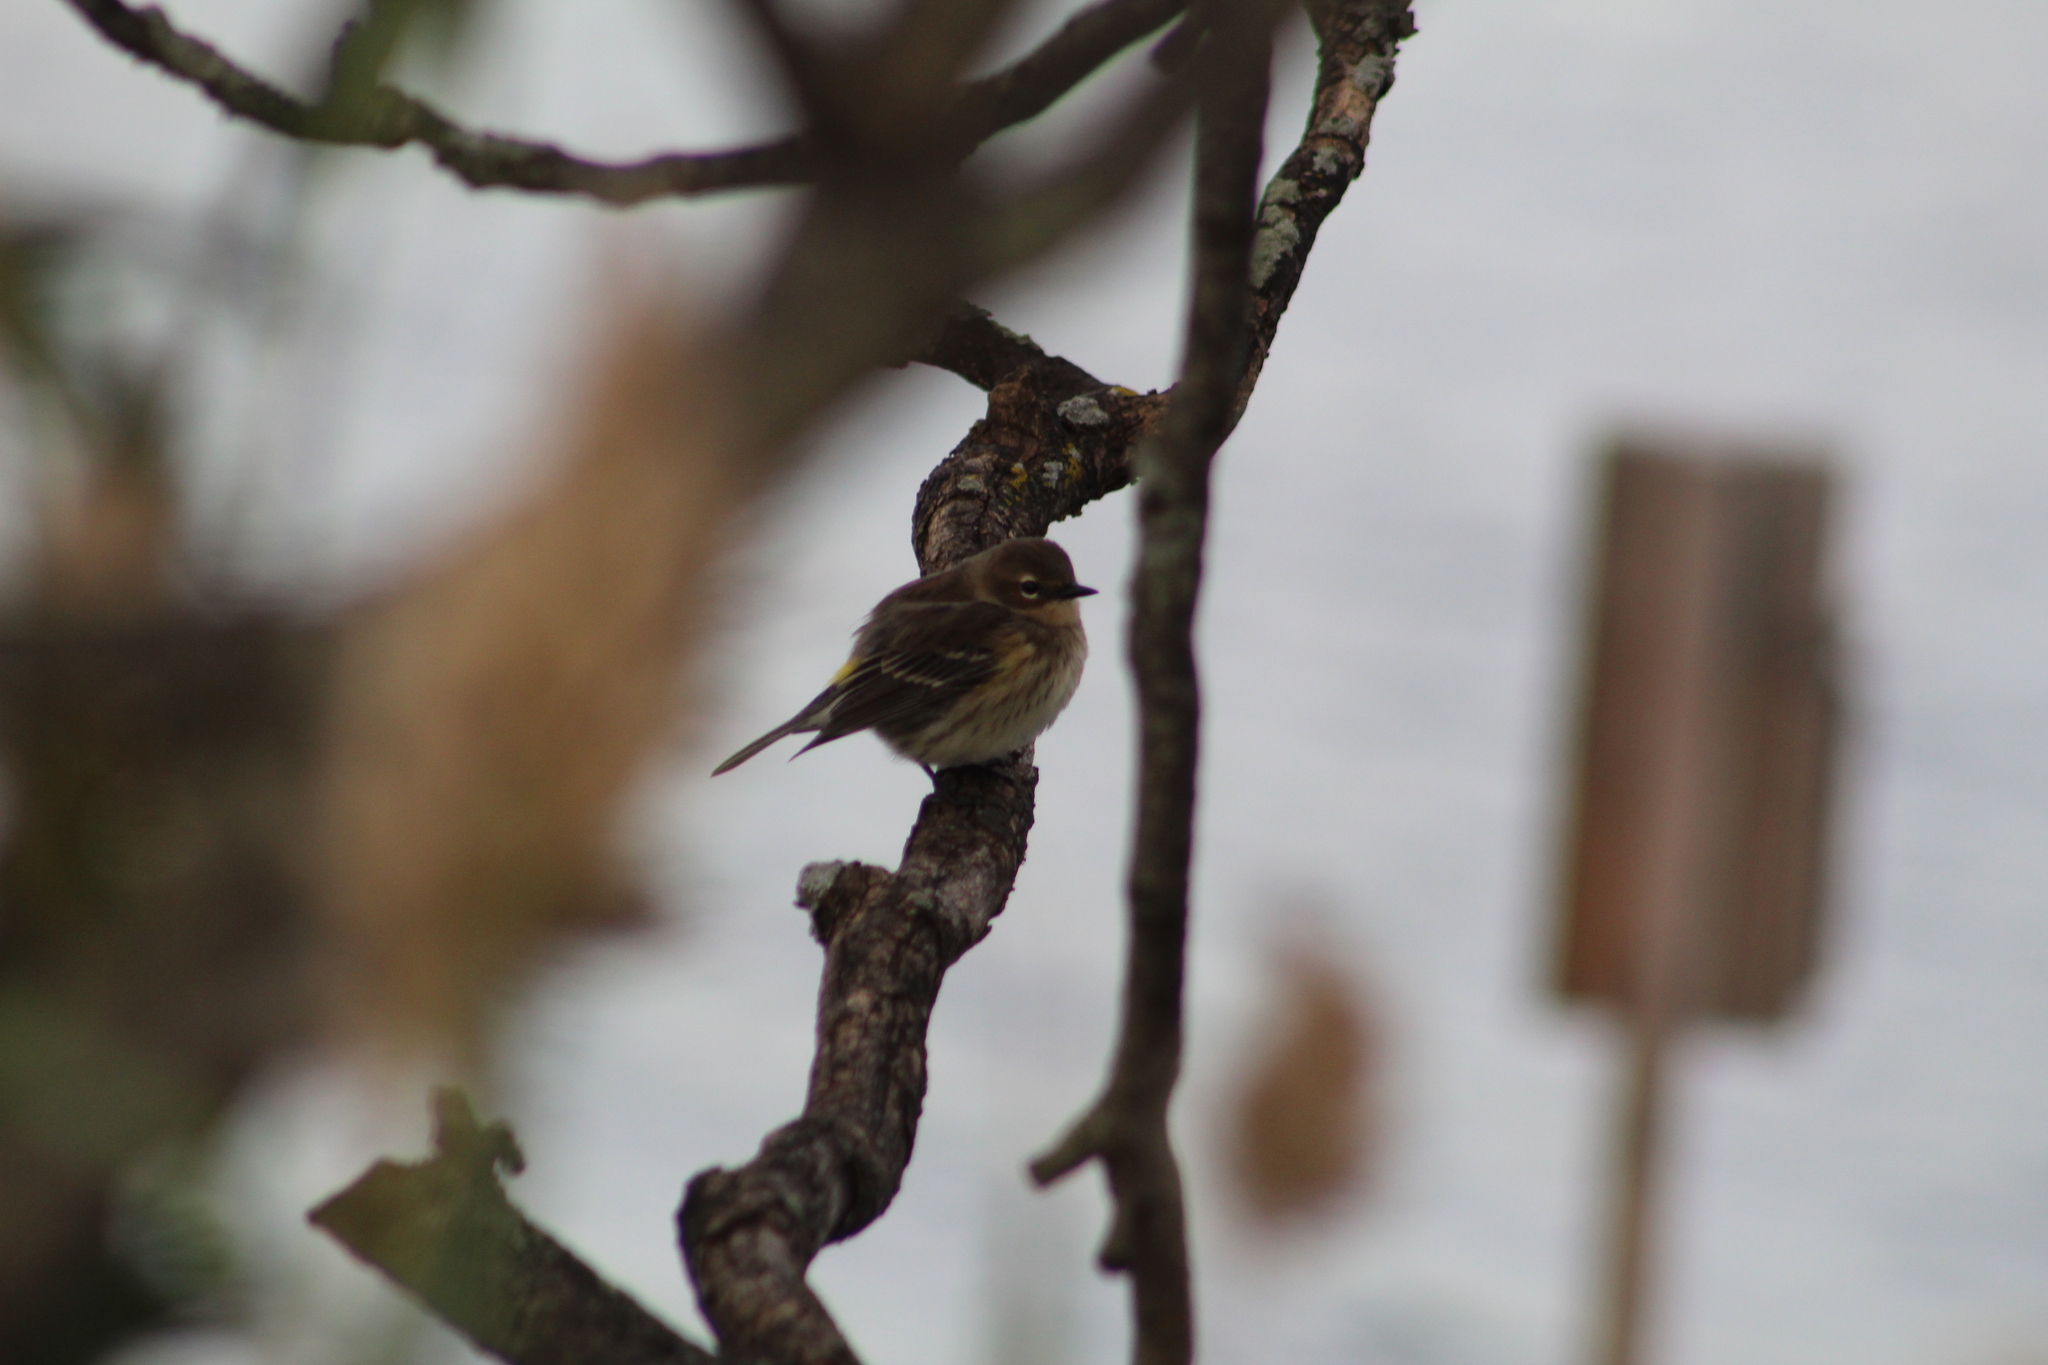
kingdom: Animalia
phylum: Chordata
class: Aves
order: Passeriformes
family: Parulidae
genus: Setophaga
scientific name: Setophaga coronata
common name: Myrtle warbler
